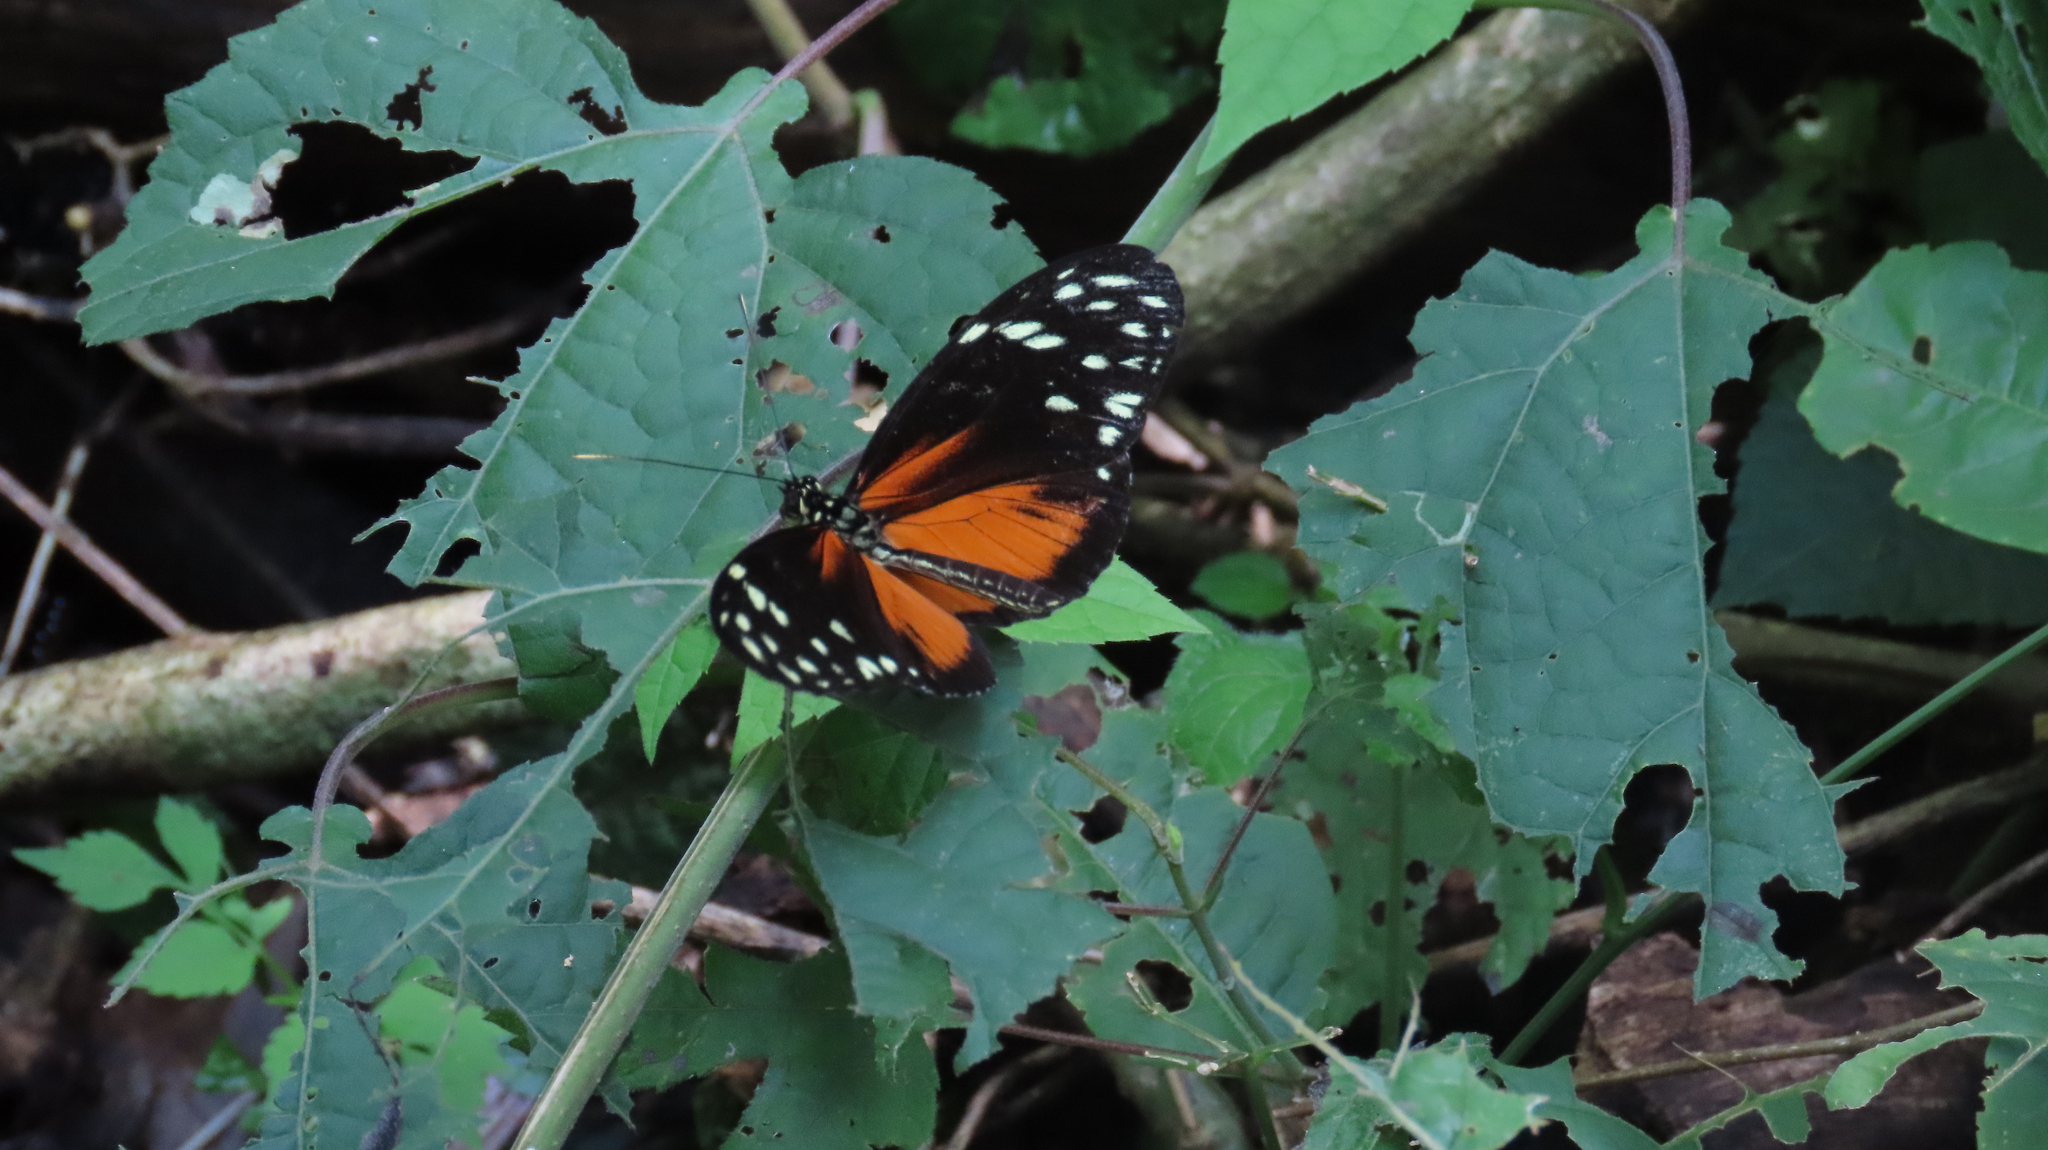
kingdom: Animalia
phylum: Arthropoda
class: Insecta
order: Lepidoptera
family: Nymphalidae
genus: Heliconius
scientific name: Heliconius hecale
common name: Tiger longwing
